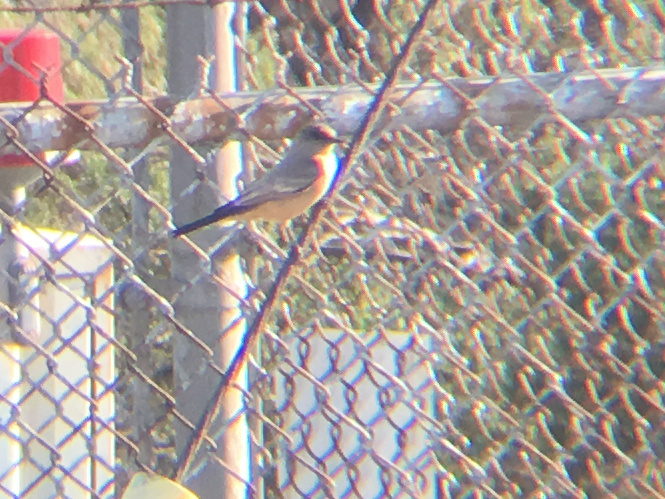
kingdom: Animalia
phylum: Chordata
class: Aves
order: Passeriformes
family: Tyrannidae
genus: Sayornis
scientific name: Sayornis saya
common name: Say's phoebe
